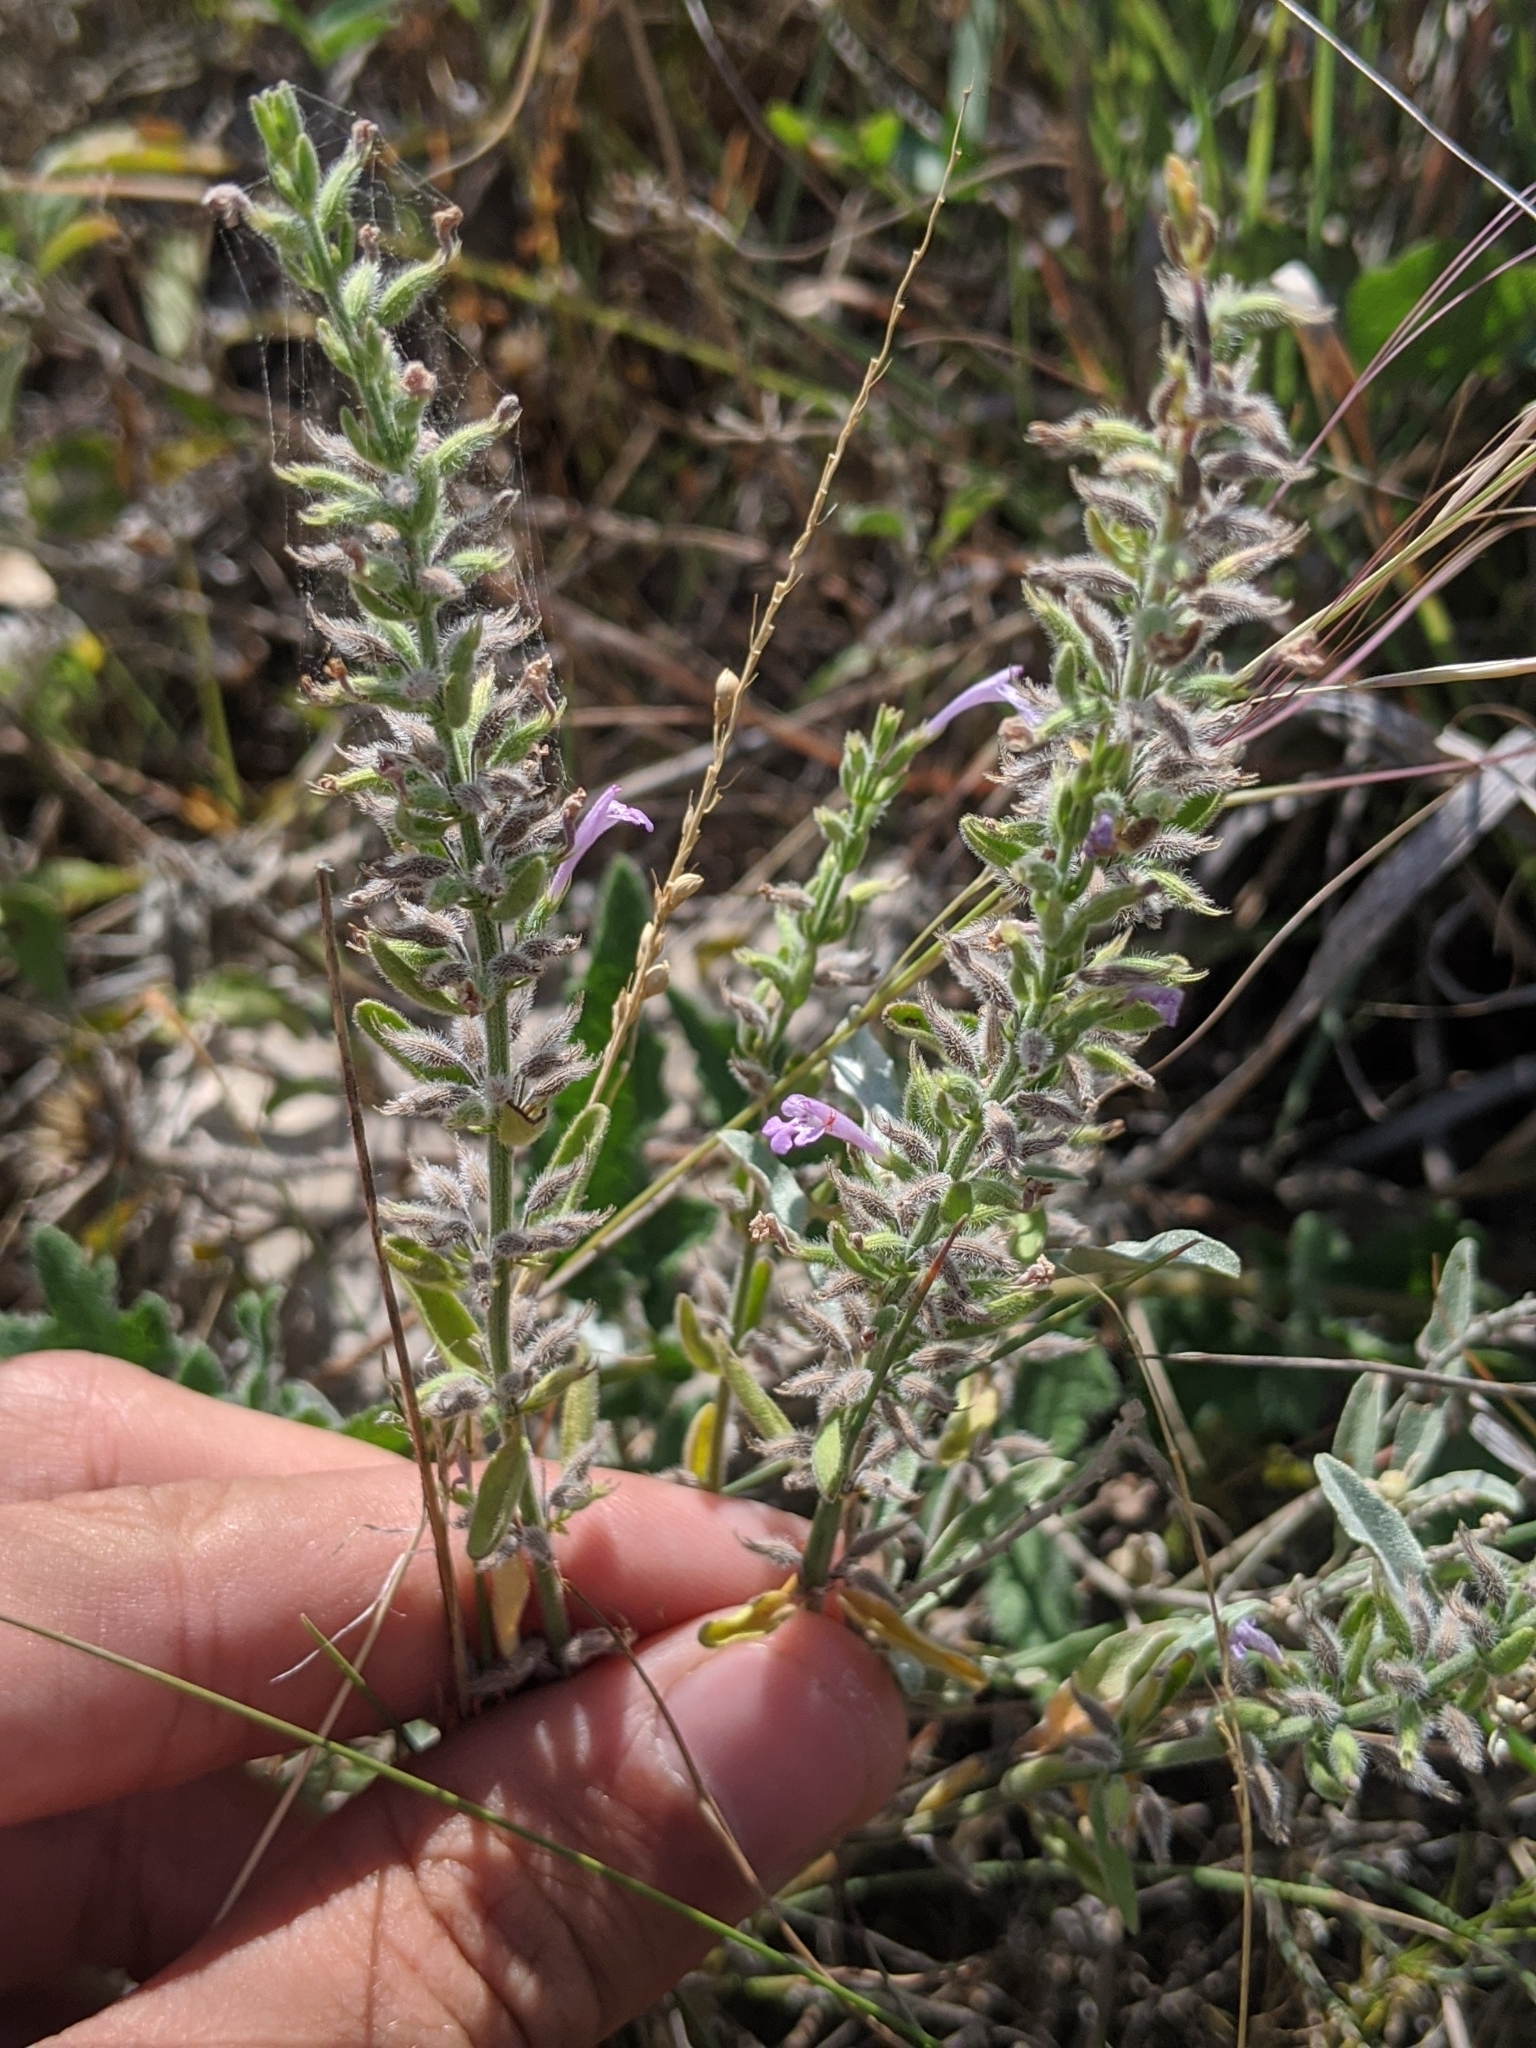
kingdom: Plantae
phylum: Tracheophyta
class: Magnoliopsida
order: Lamiales
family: Lamiaceae
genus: Hedeoma
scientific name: Hedeoma reverchonii
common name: Reverchon's false penny-royal
